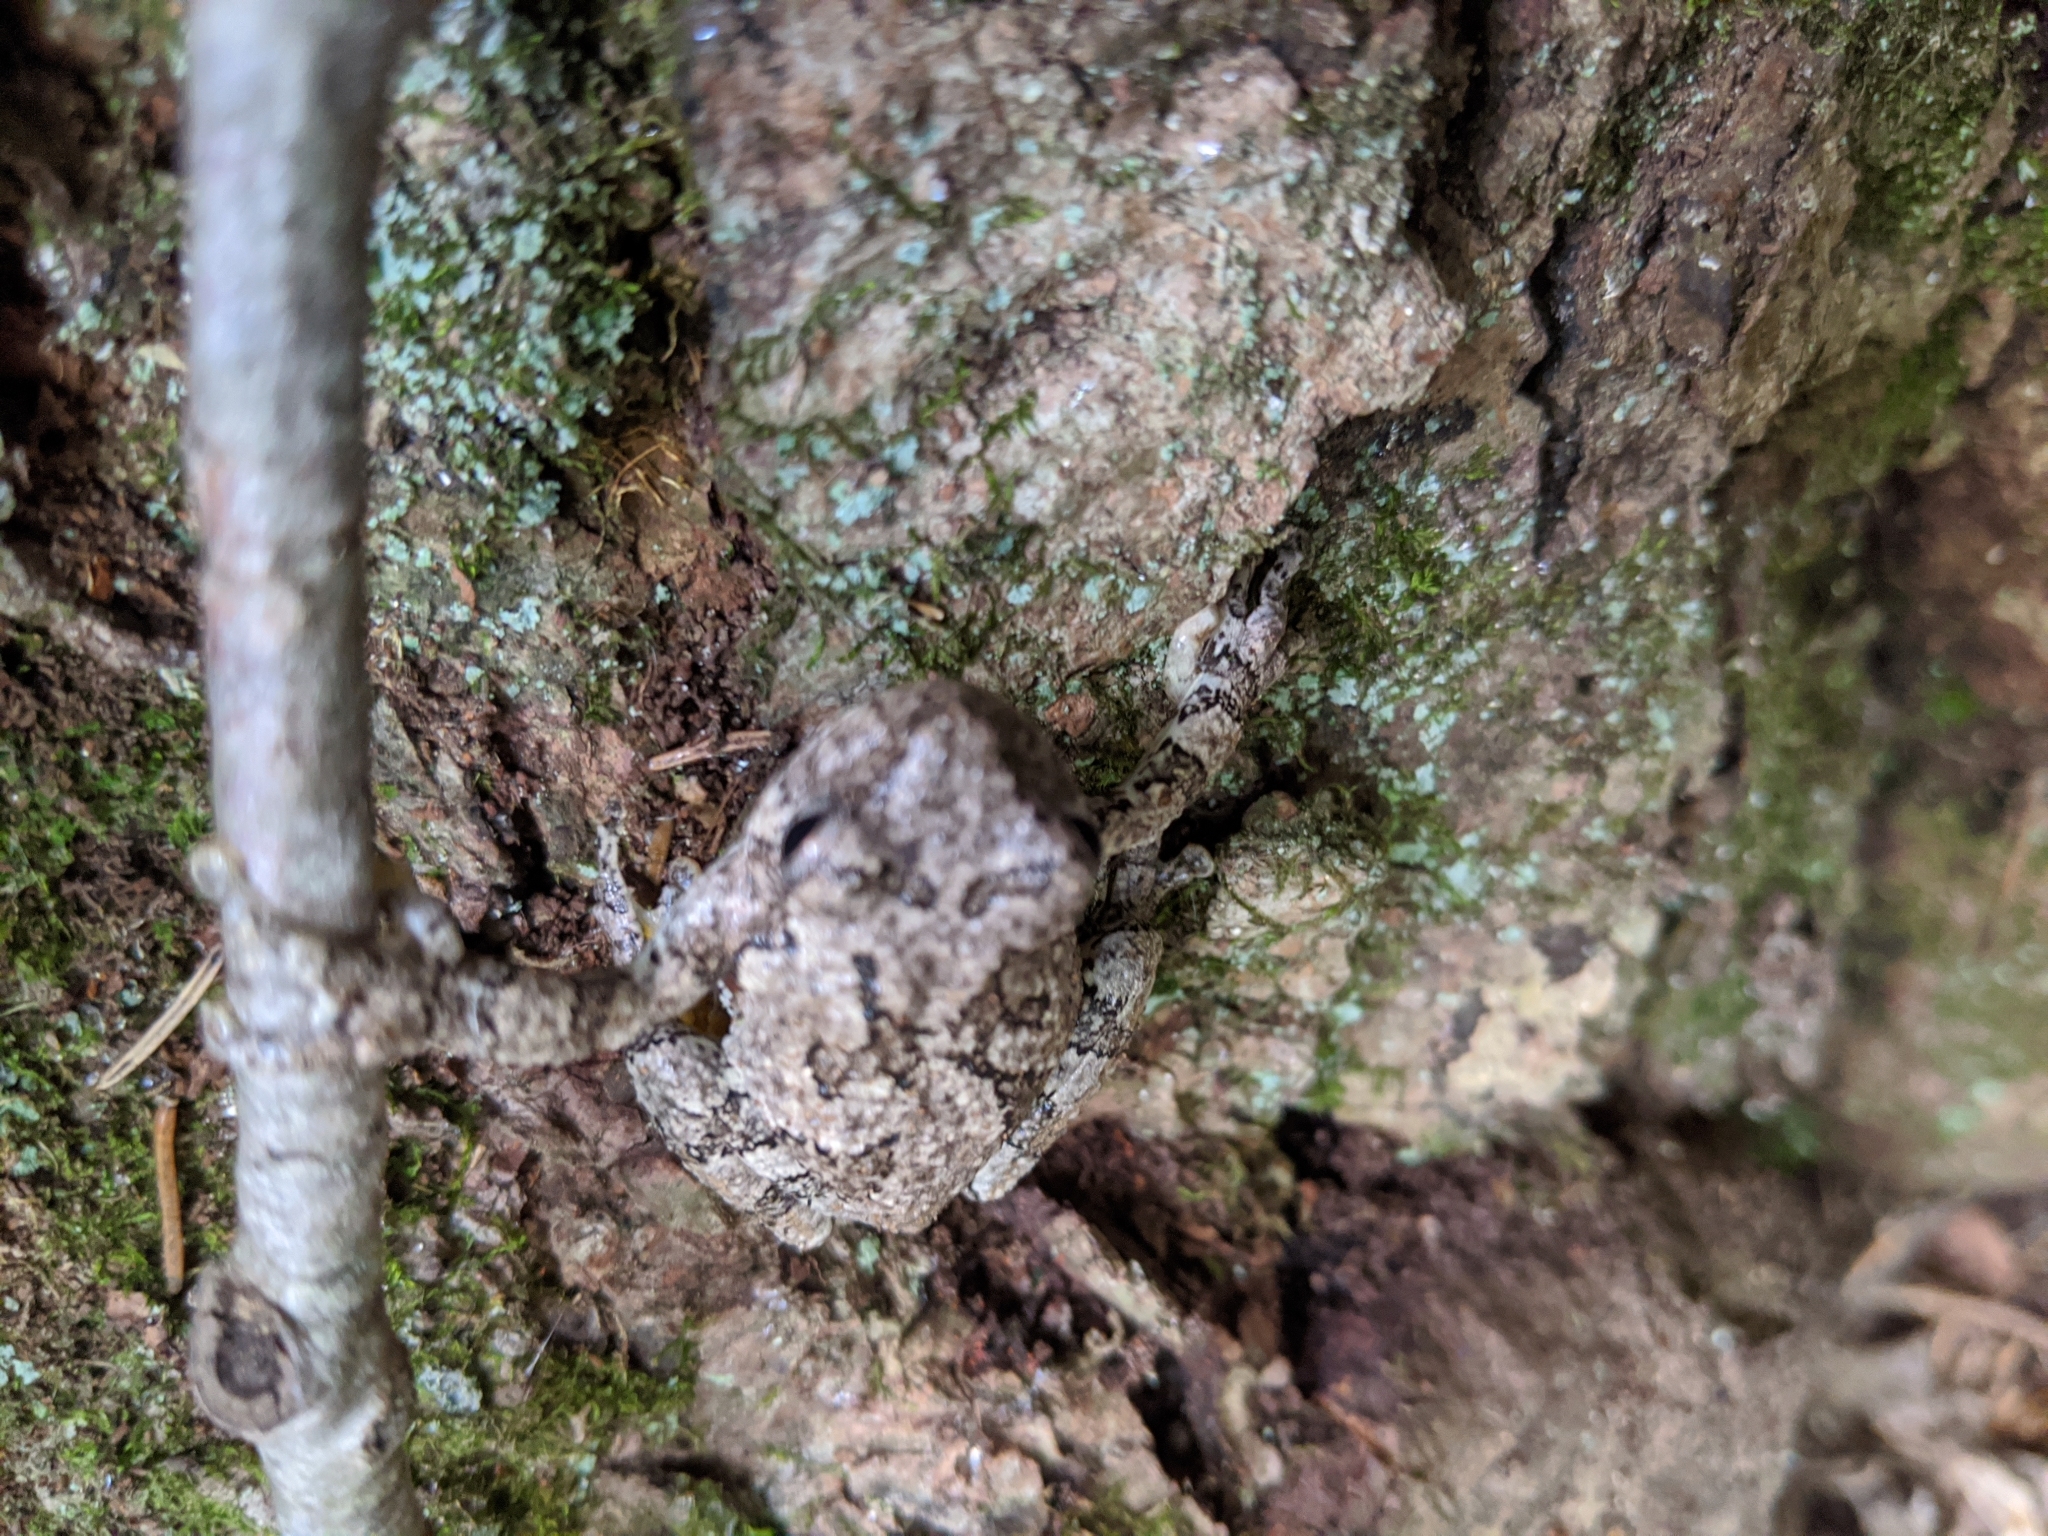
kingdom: Animalia
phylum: Chordata
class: Amphibia
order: Anura
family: Hylidae
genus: Dryophytes
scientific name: Dryophytes versicolor
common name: Gray treefrog
